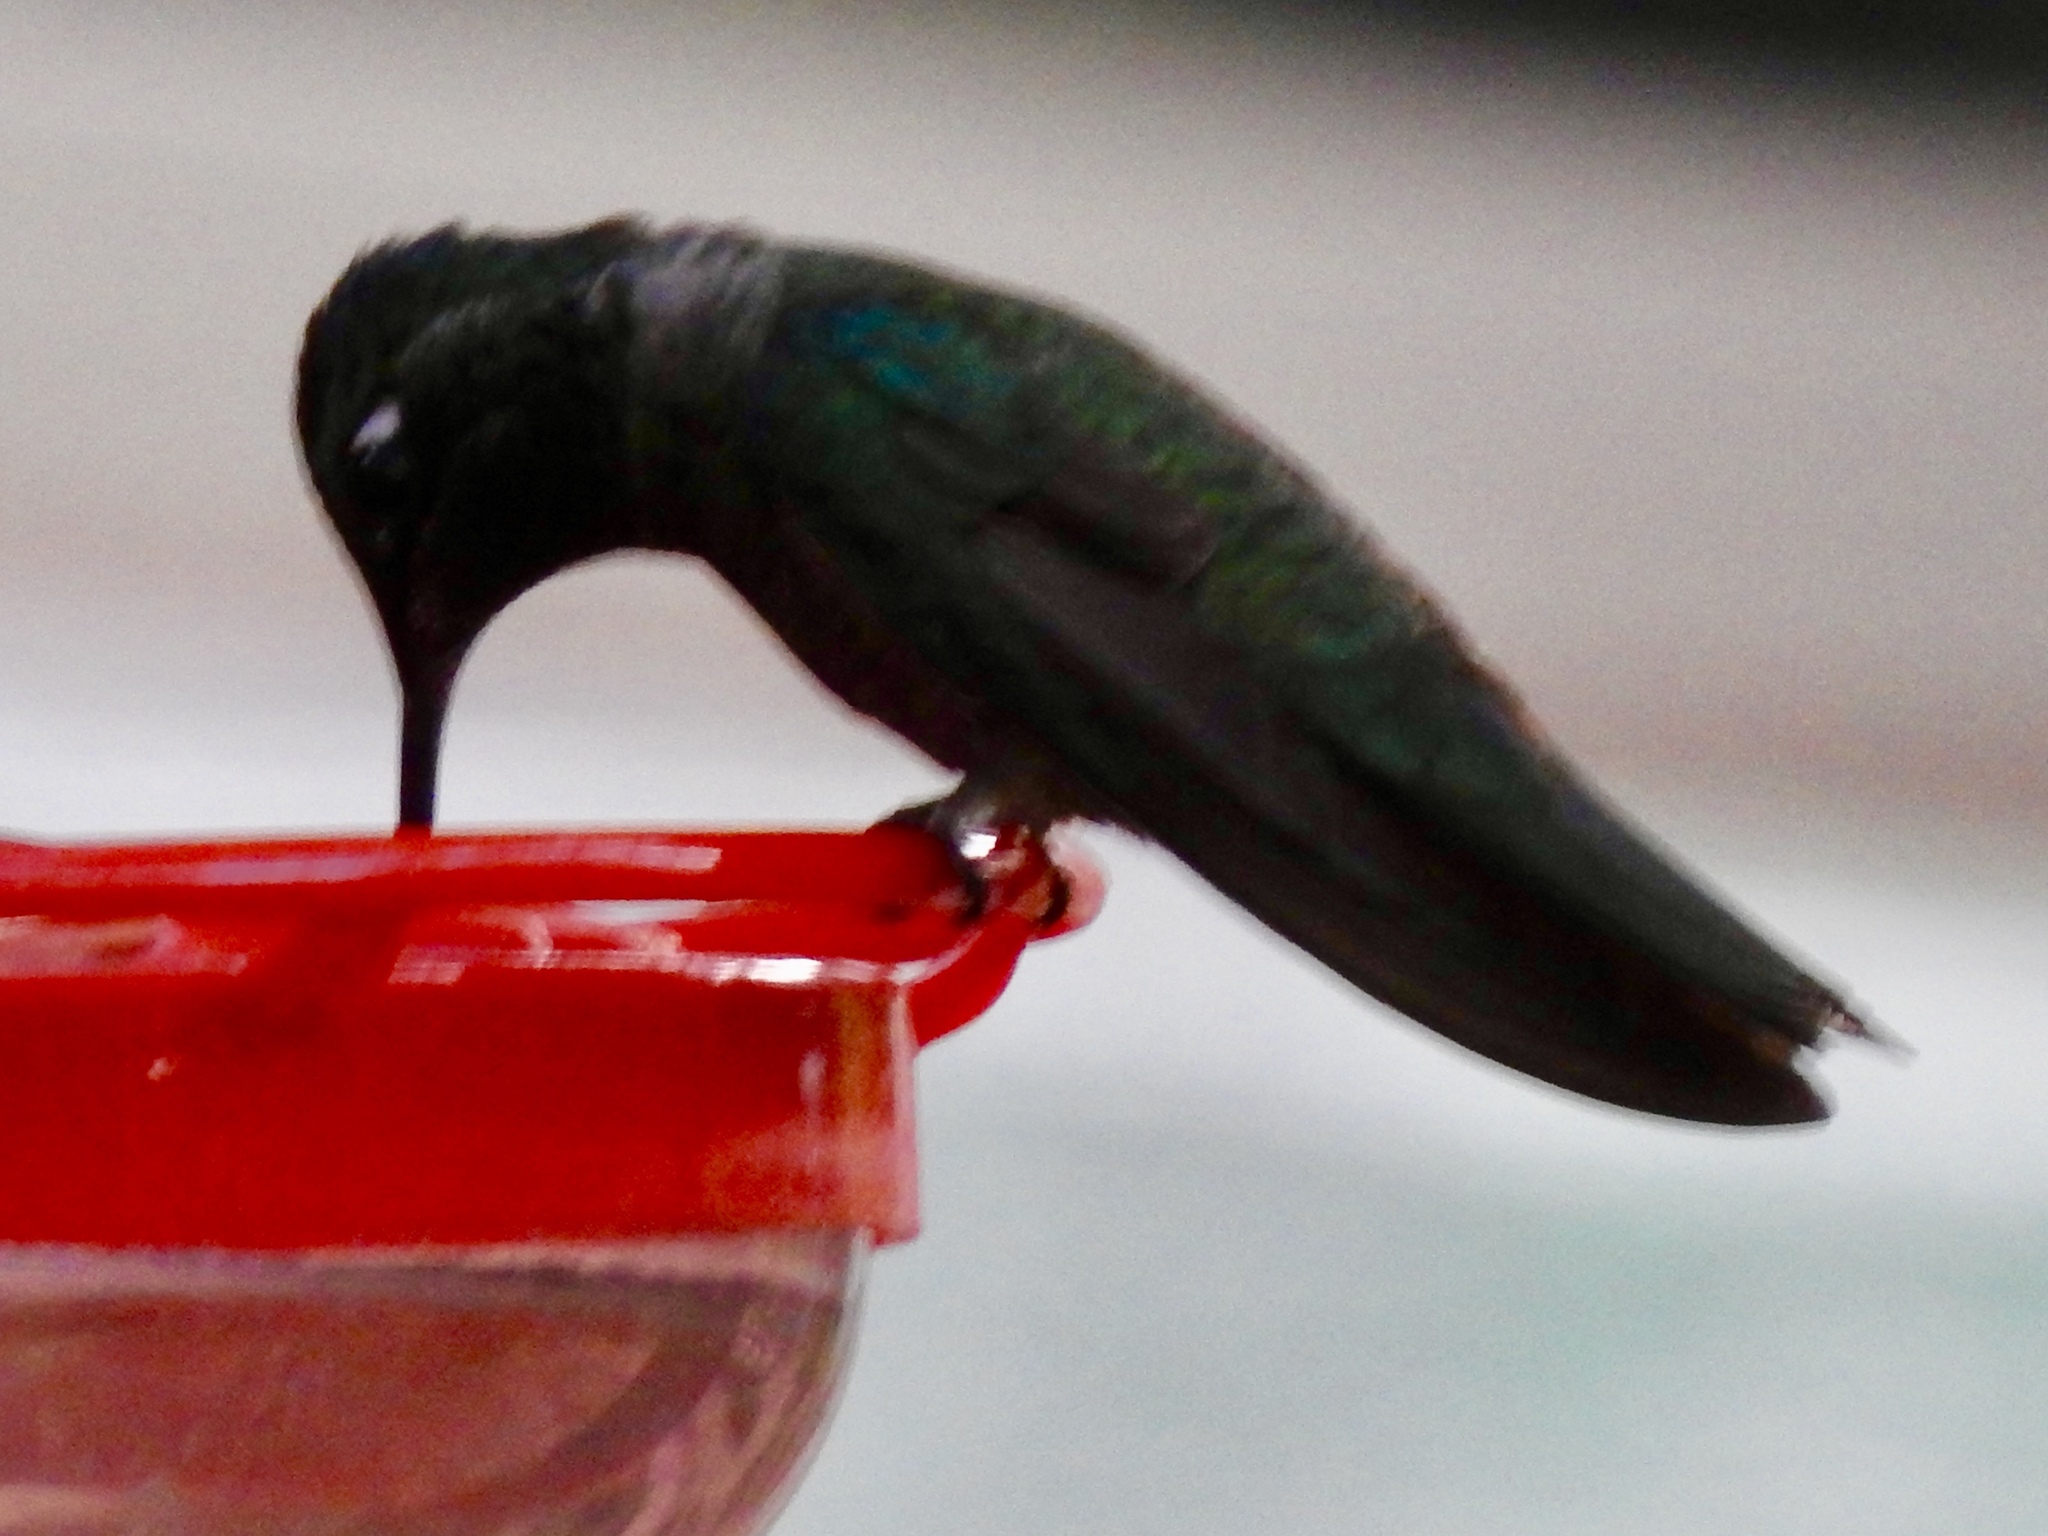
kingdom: Animalia
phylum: Chordata
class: Aves
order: Apodiformes
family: Trochilidae
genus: Eugenes
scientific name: Eugenes fulgens
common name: Magnificent hummingbird
